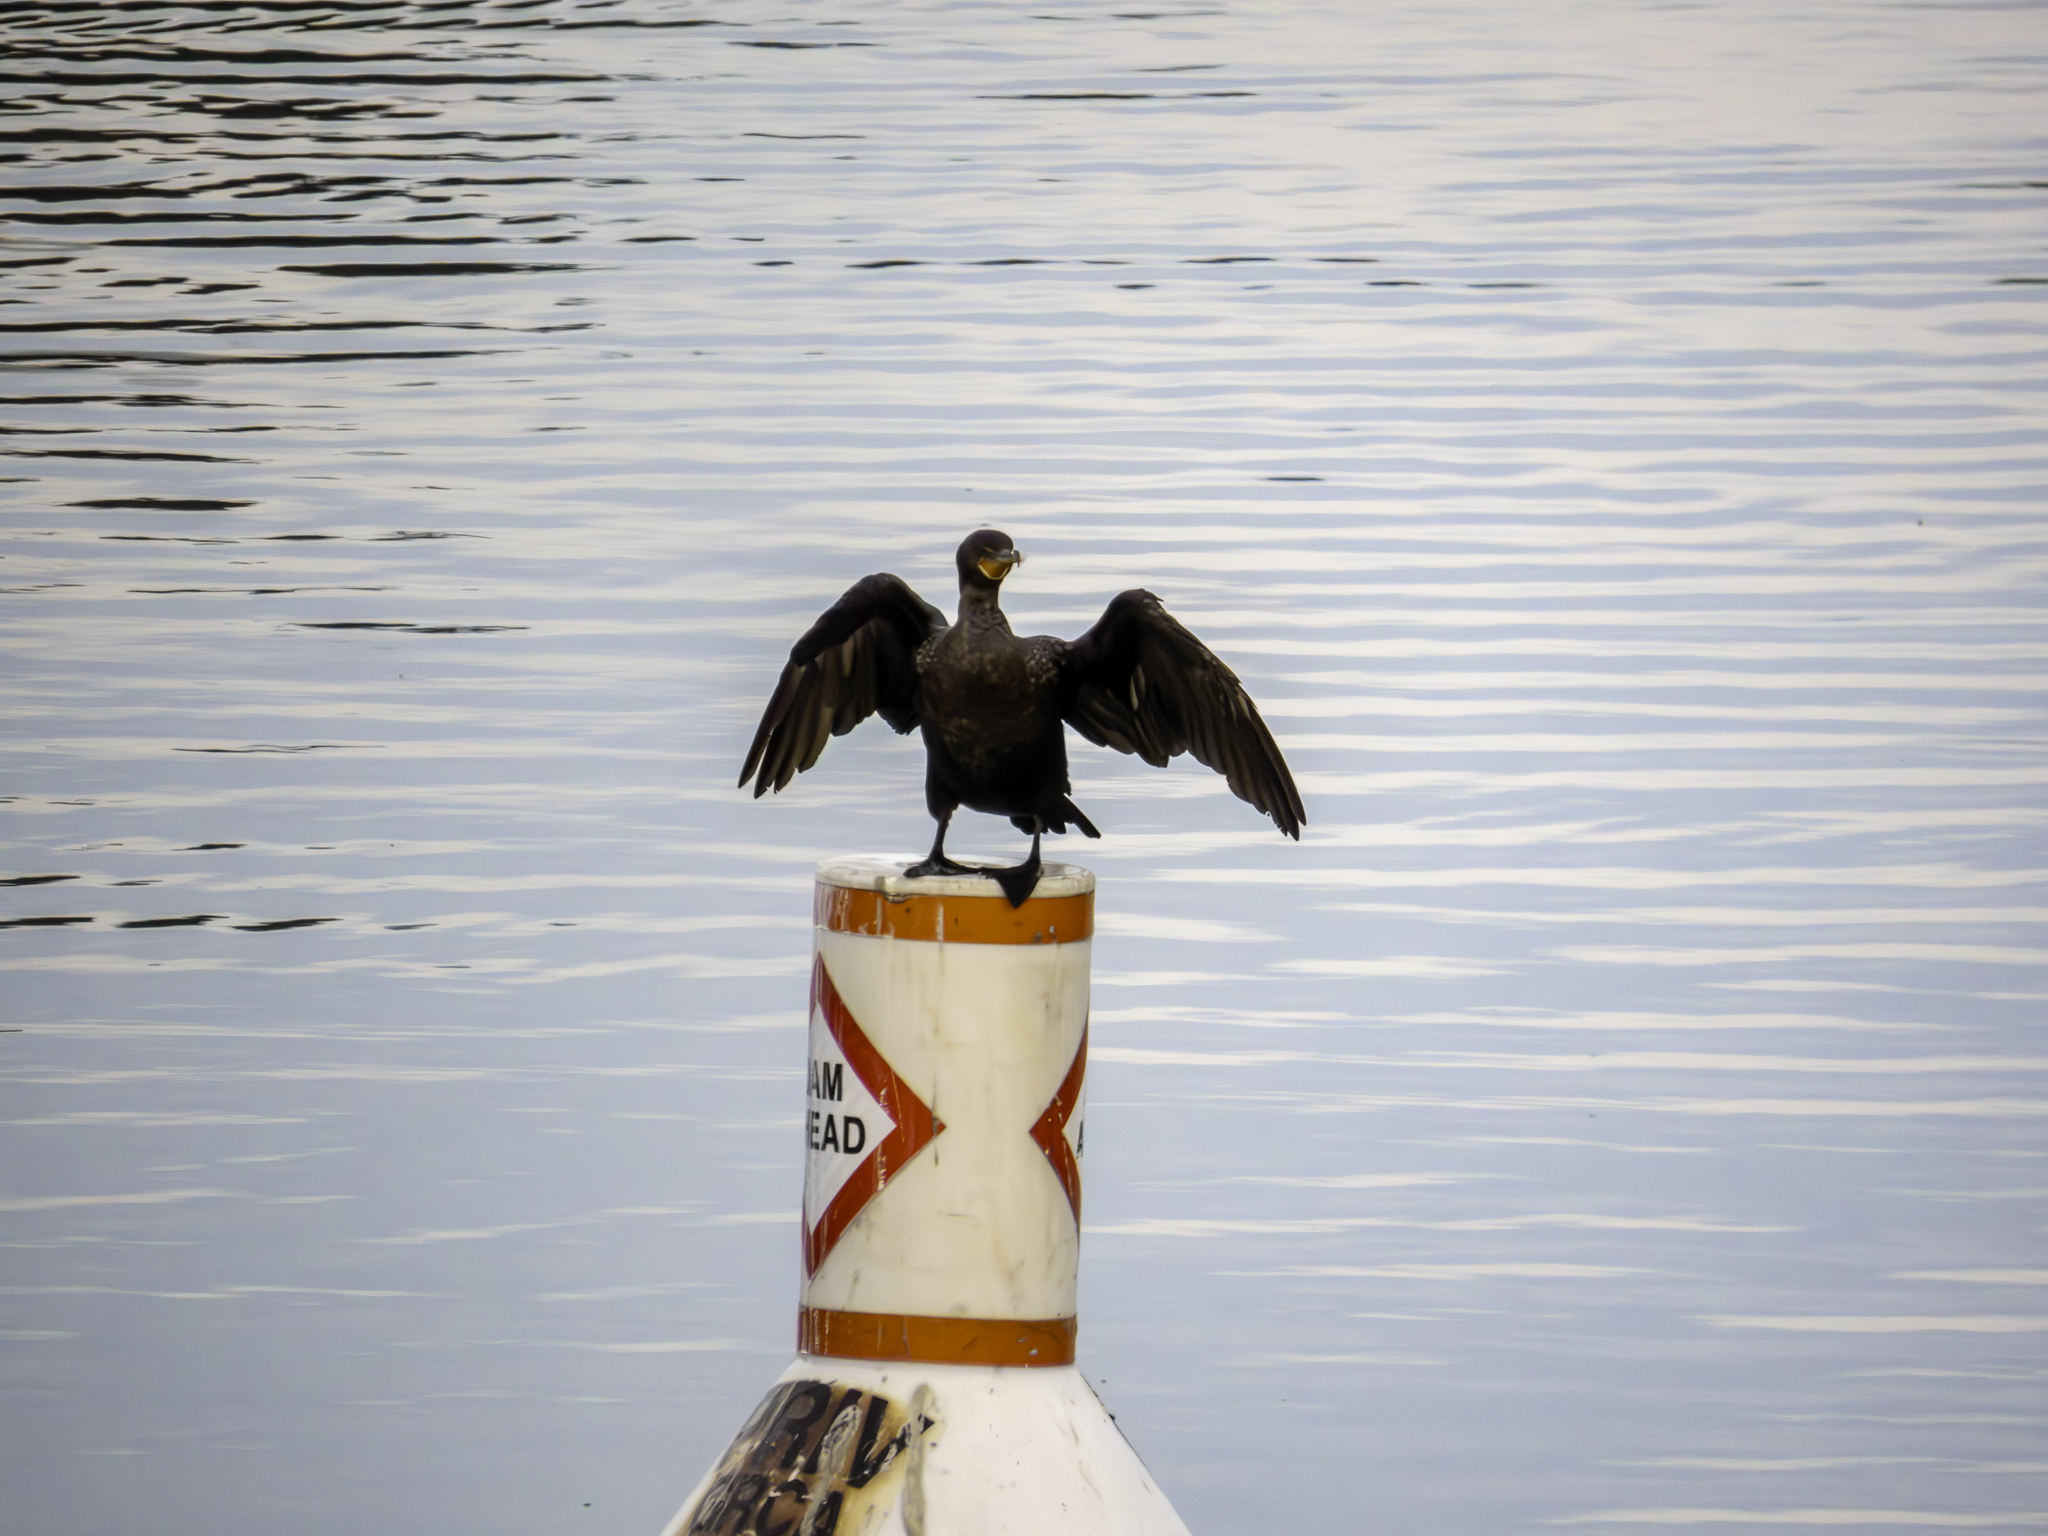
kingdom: Animalia
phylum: Chordata
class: Aves
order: Suliformes
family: Phalacrocoracidae
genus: Phalacrocorax
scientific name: Phalacrocorax auritus
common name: Double-crested cormorant
